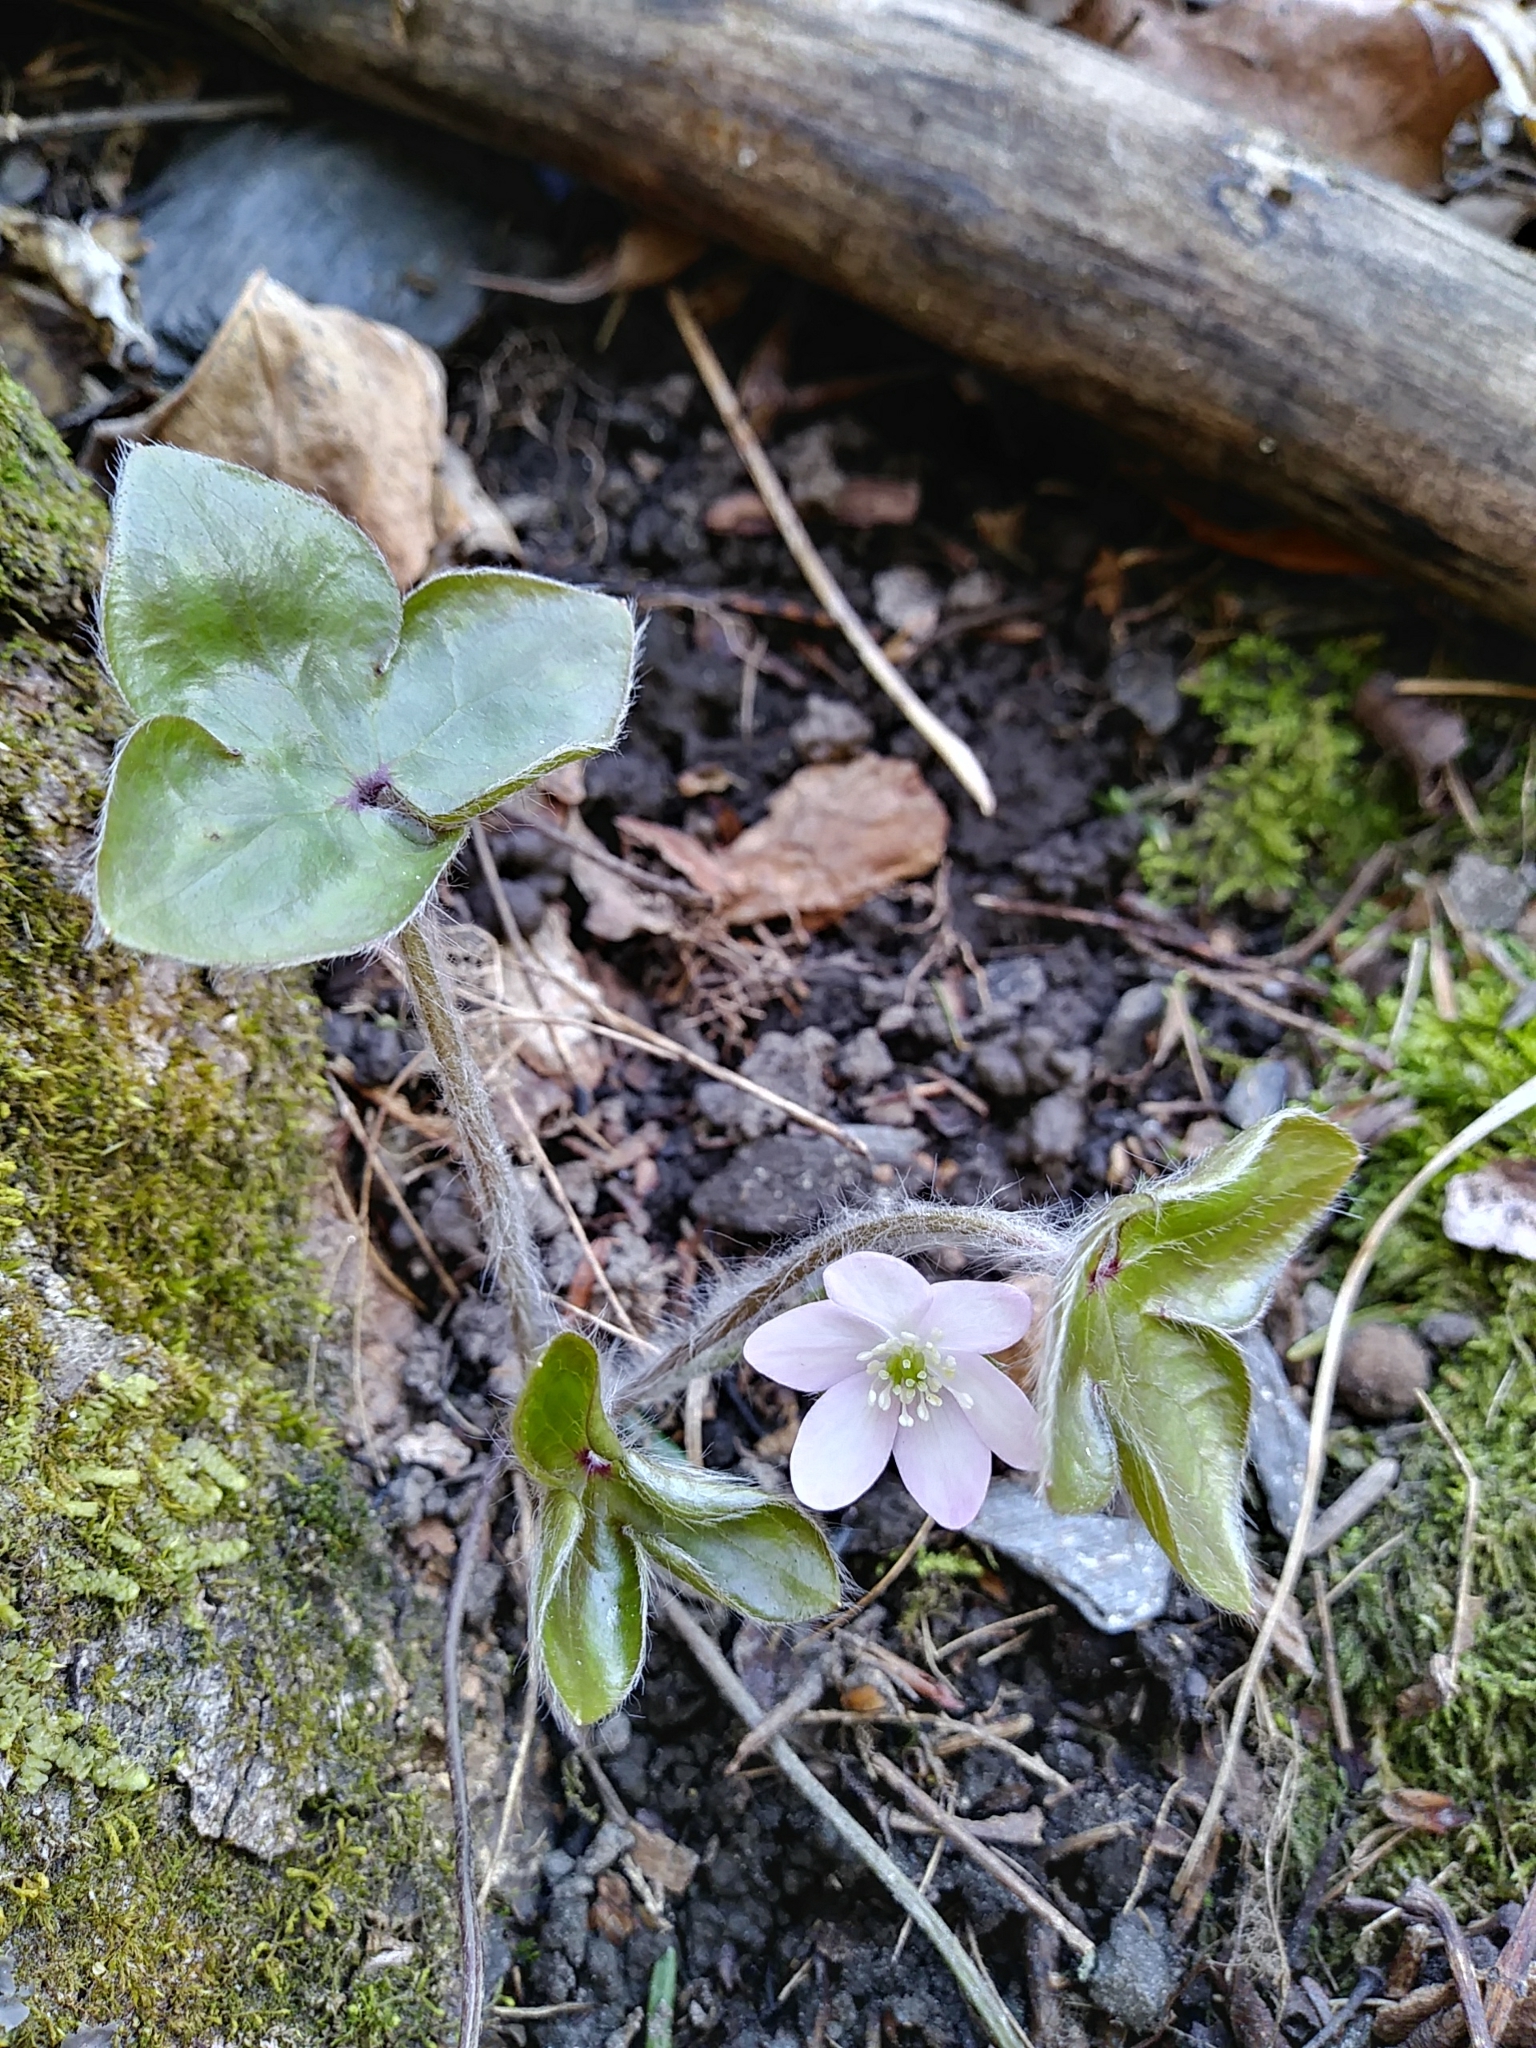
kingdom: Plantae
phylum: Tracheophyta
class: Magnoliopsida
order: Ranunculales
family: Ranunculaceae
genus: Hepatica
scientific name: Hepatica acutiloba
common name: Sharp-lobed hepatica
